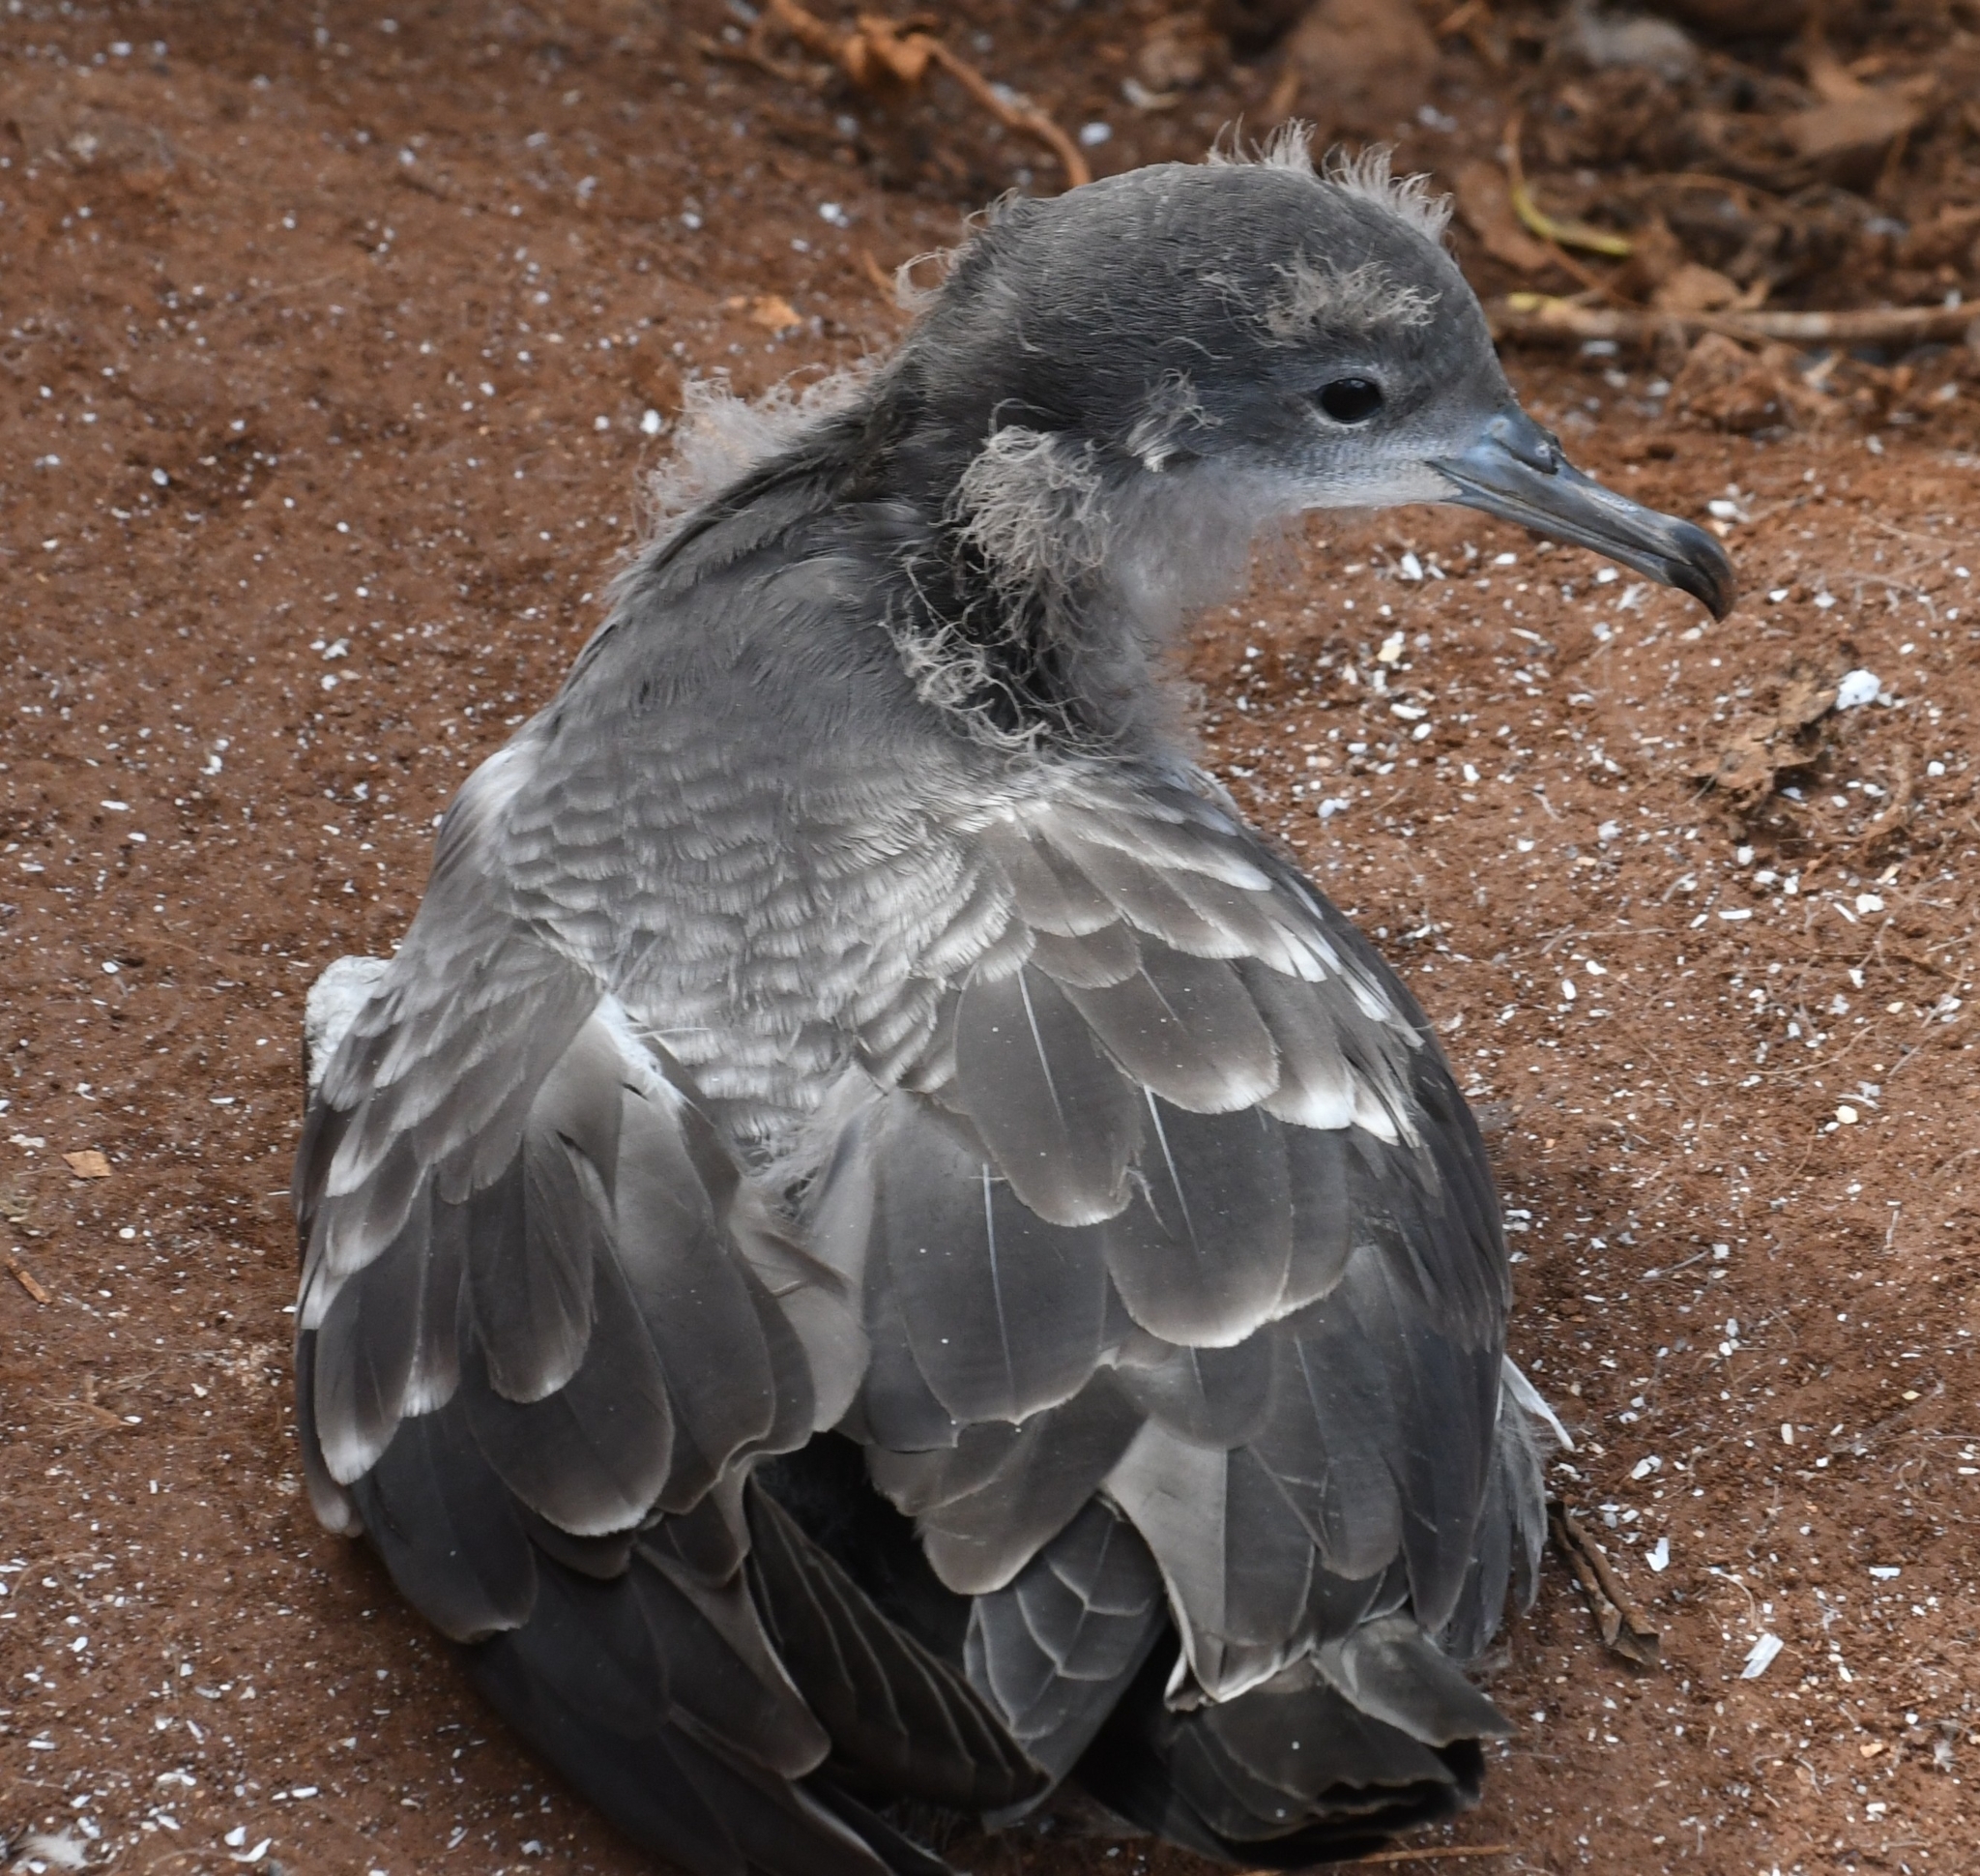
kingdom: Animalia
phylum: Chordata
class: Aves
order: Procellariiformes
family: Procellariidae
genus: Puffinus
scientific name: Puffinus pacificus
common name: Wedge-tailed shearwater
